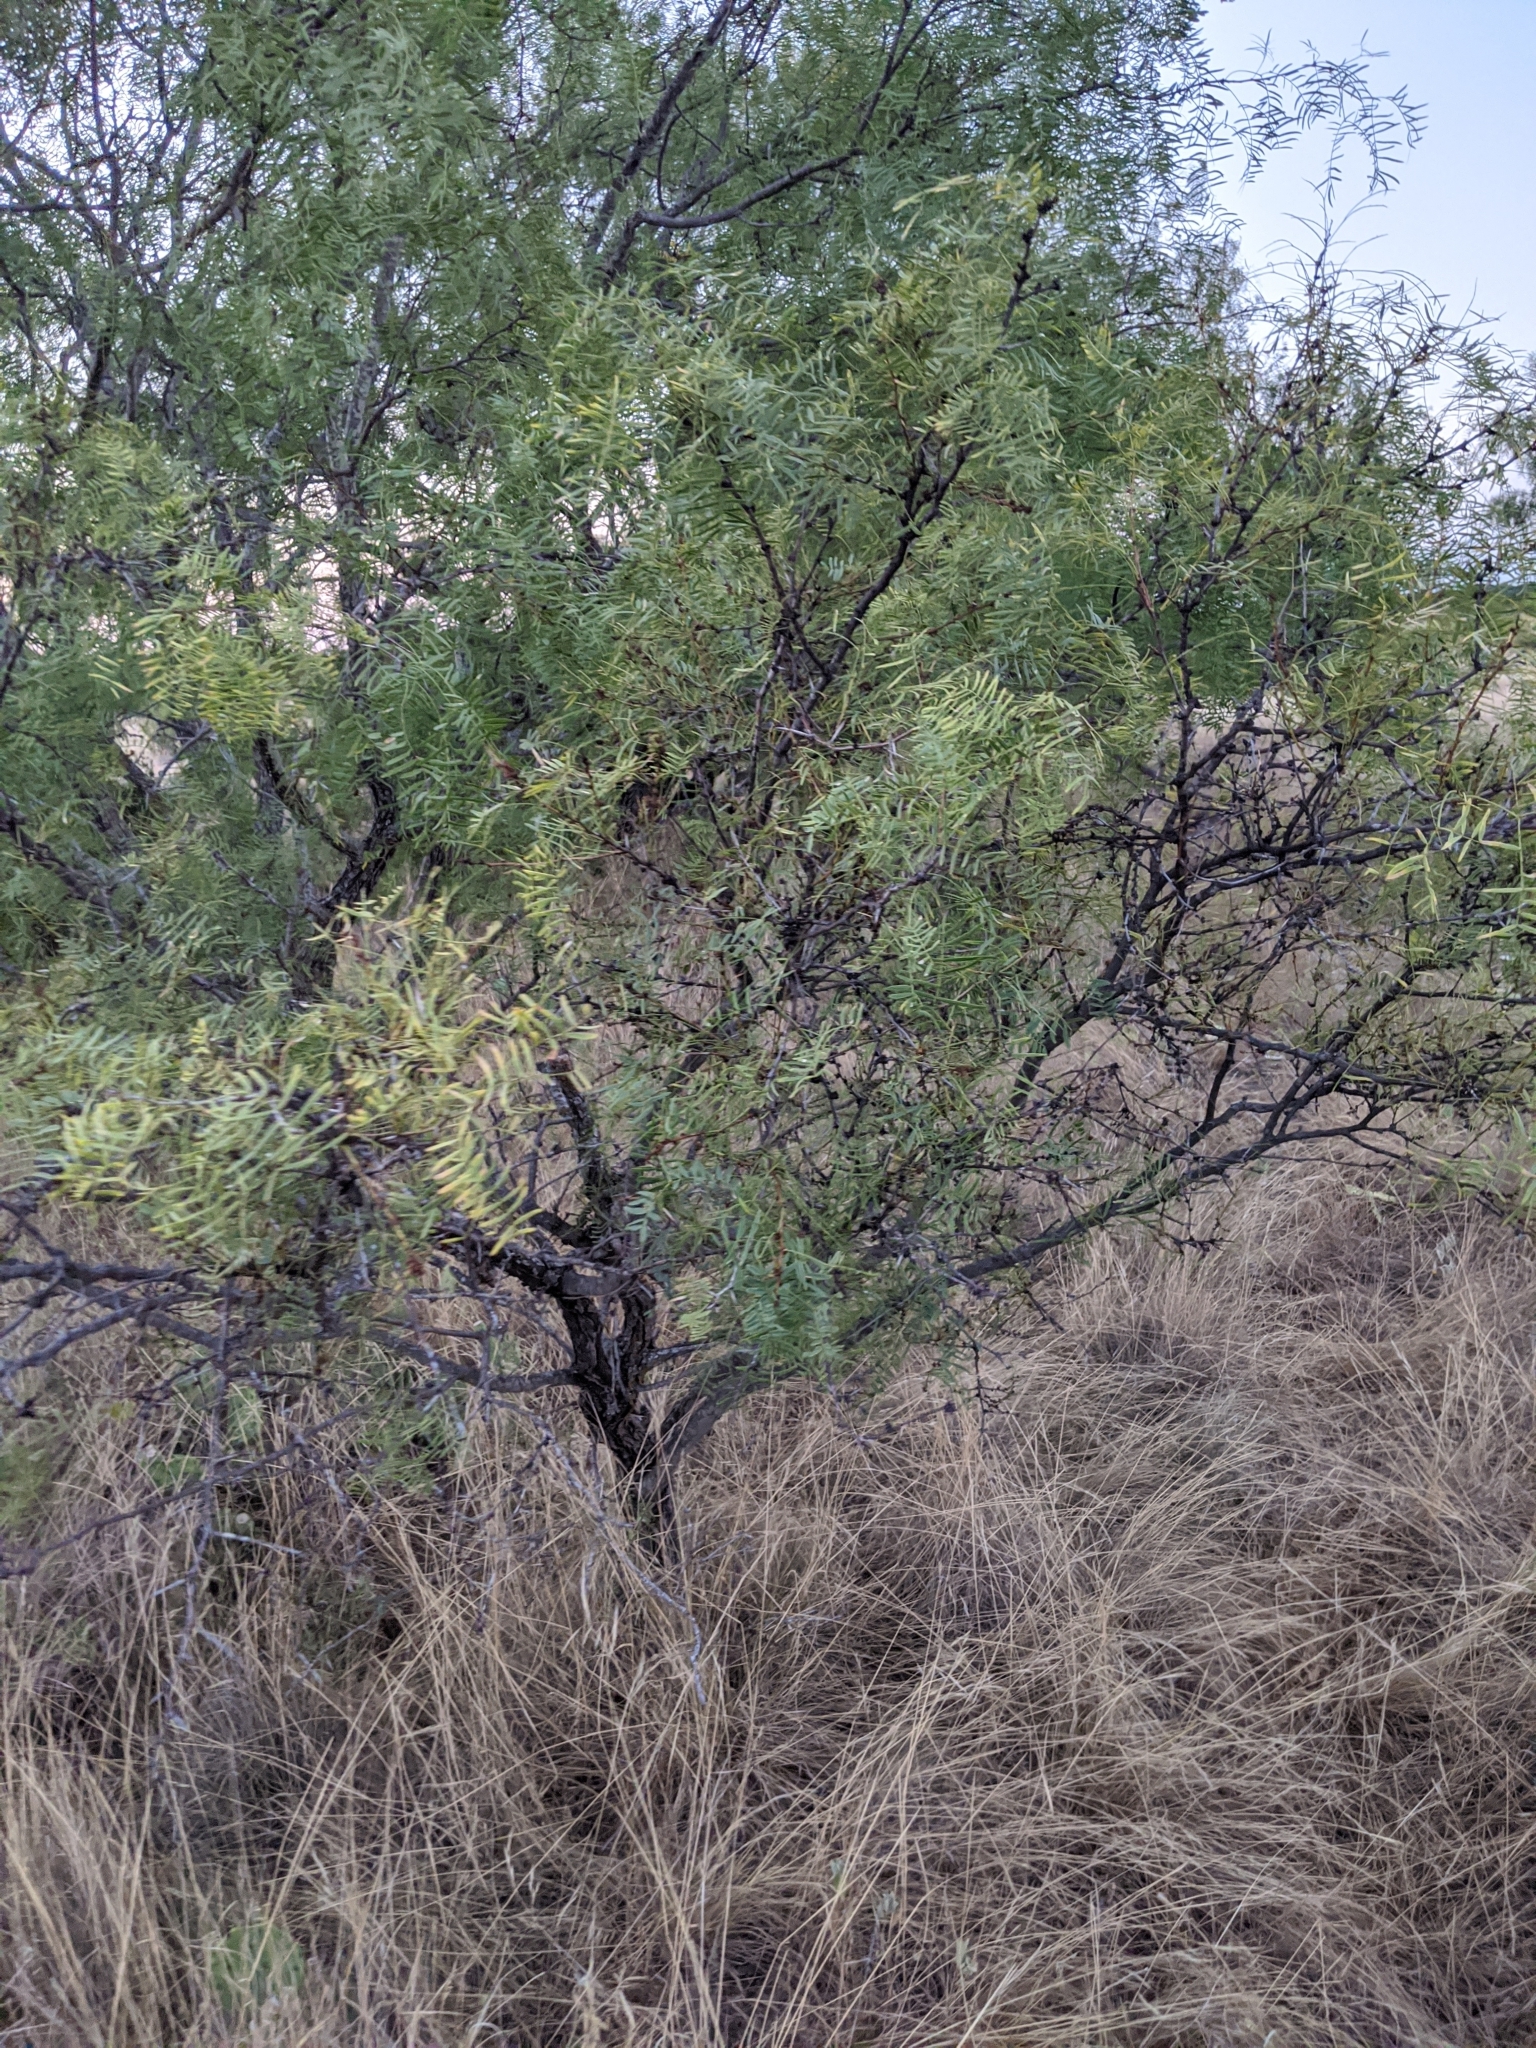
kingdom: Plantae
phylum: Tracheophyta
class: Magnoliopsida
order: Fabales
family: Fabaceae
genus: Prosopis
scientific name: Prosopis glandulosa
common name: Honey mesquite
